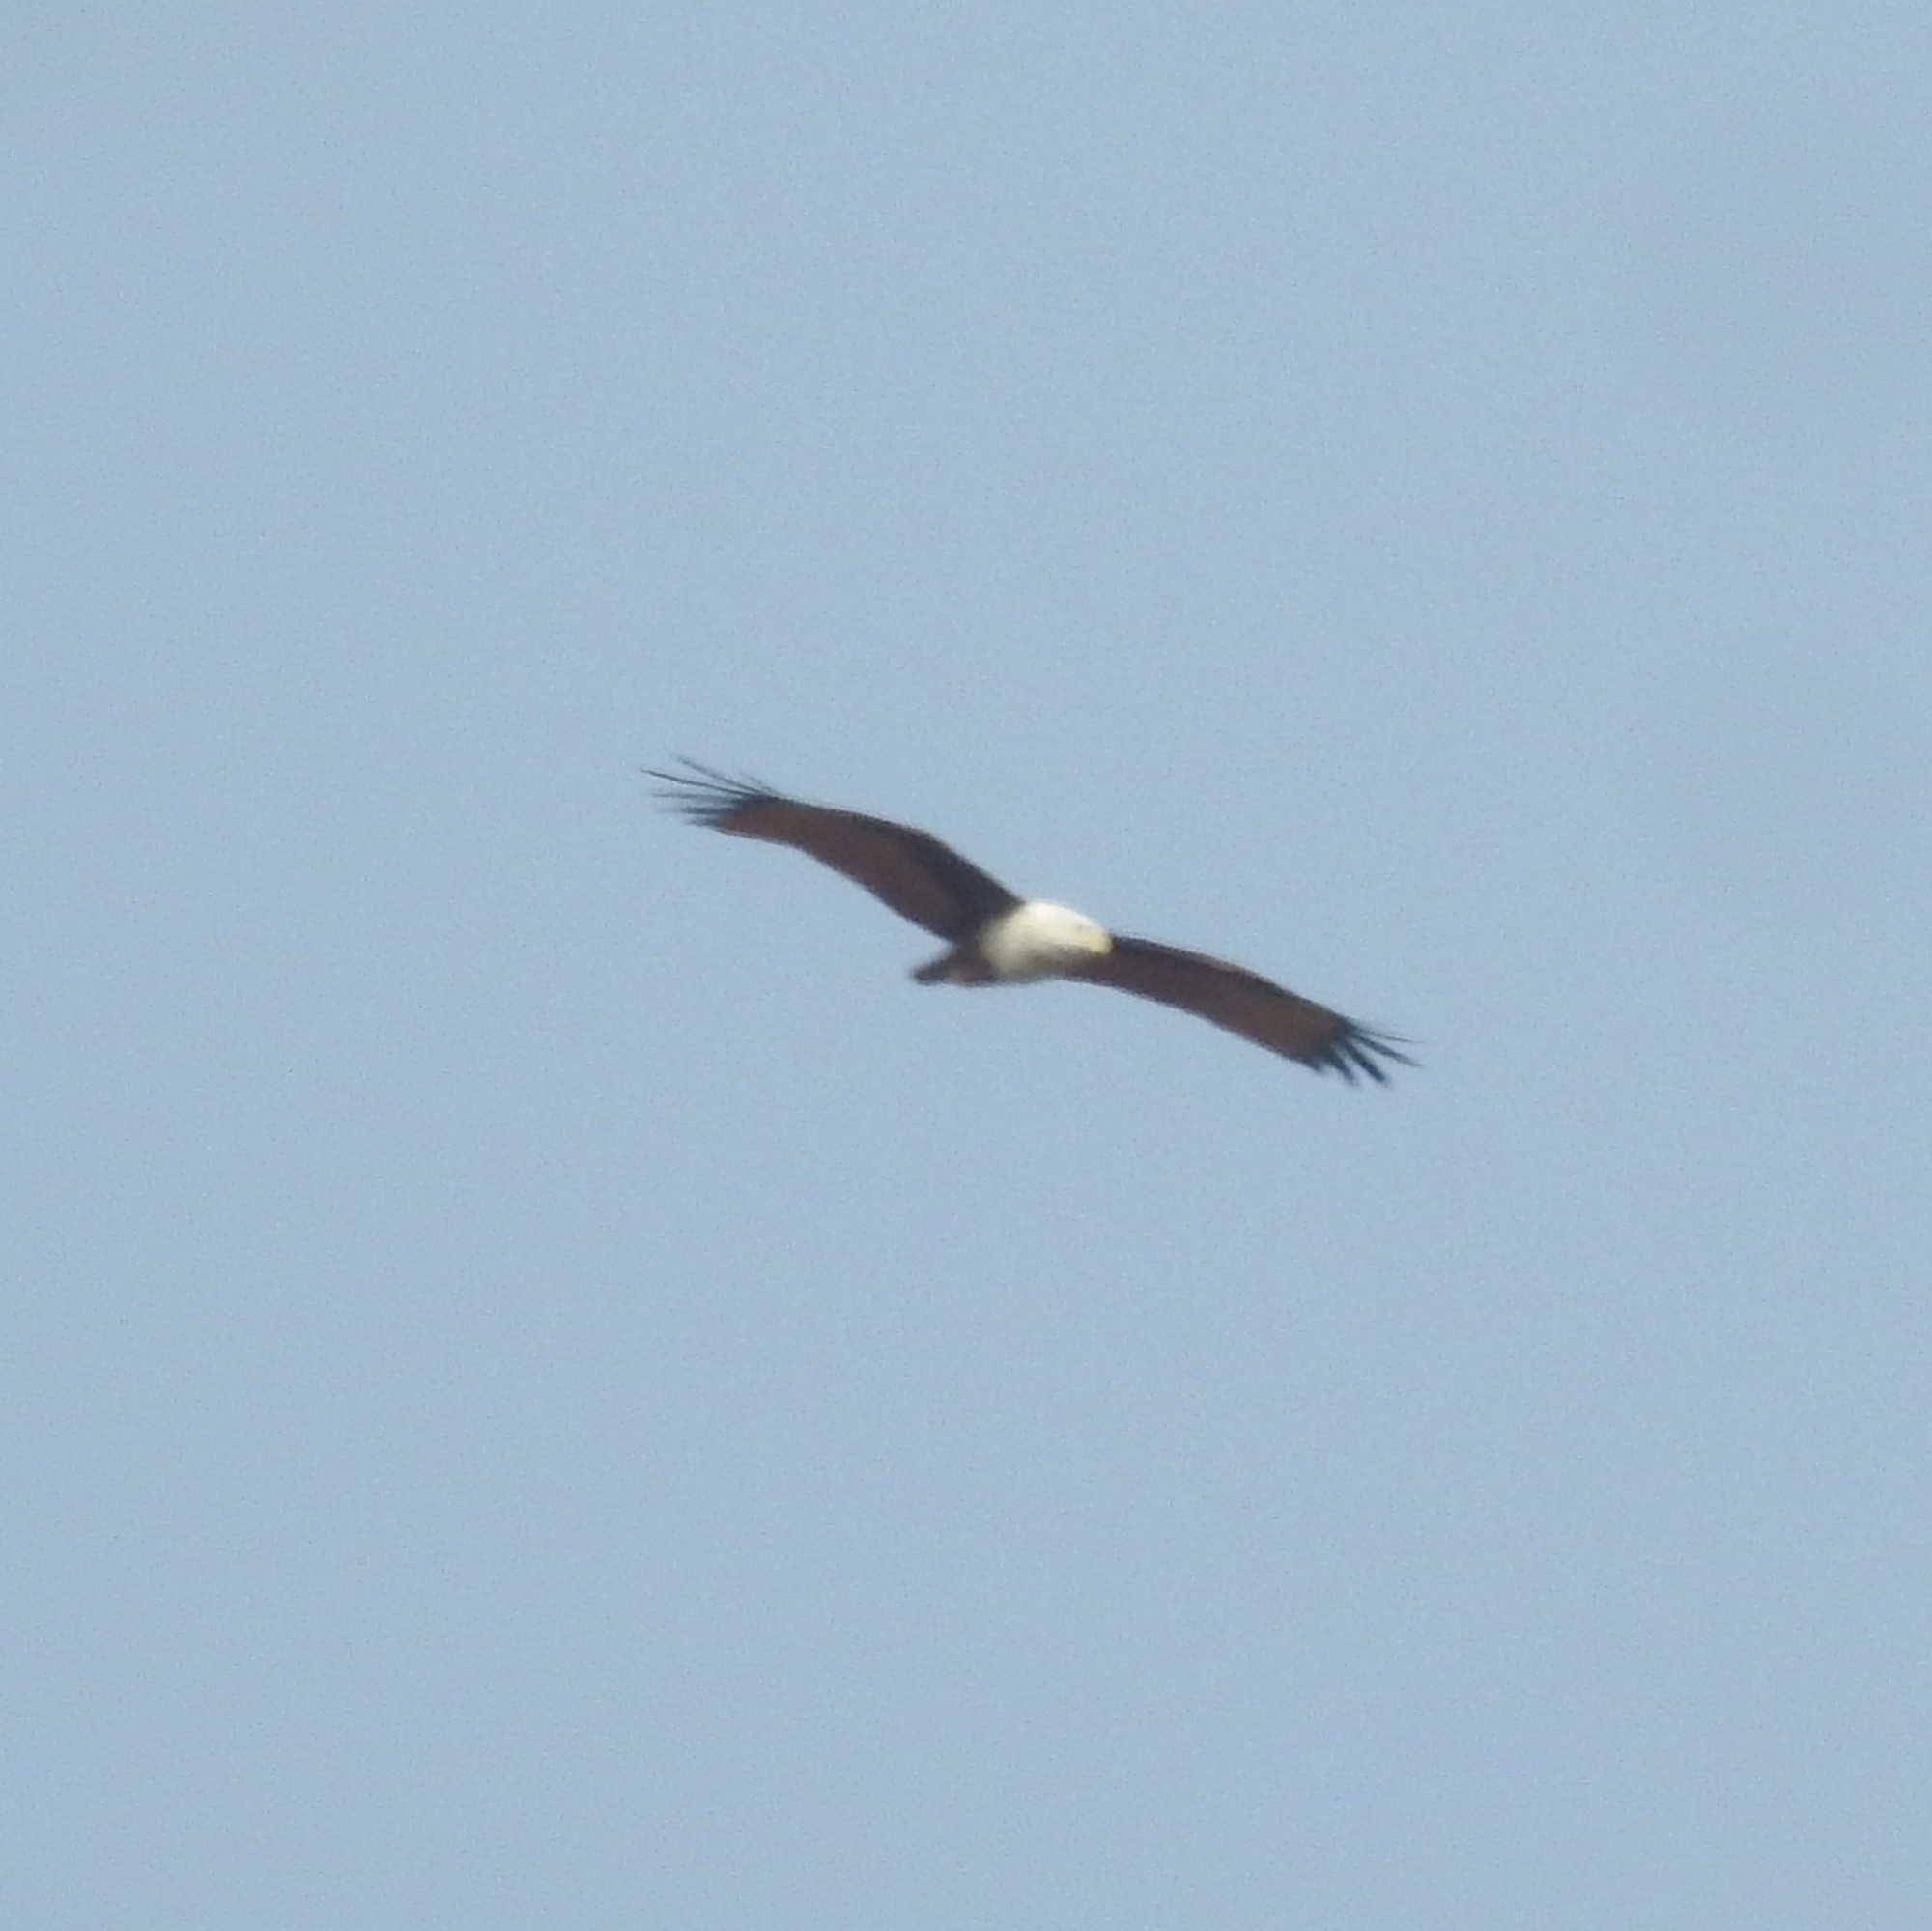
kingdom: Animalia
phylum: Chordata
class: Aves
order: Accipitriformes
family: Accipitridae
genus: Haliastur
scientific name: Haliastur indus
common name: Brahminy kite
